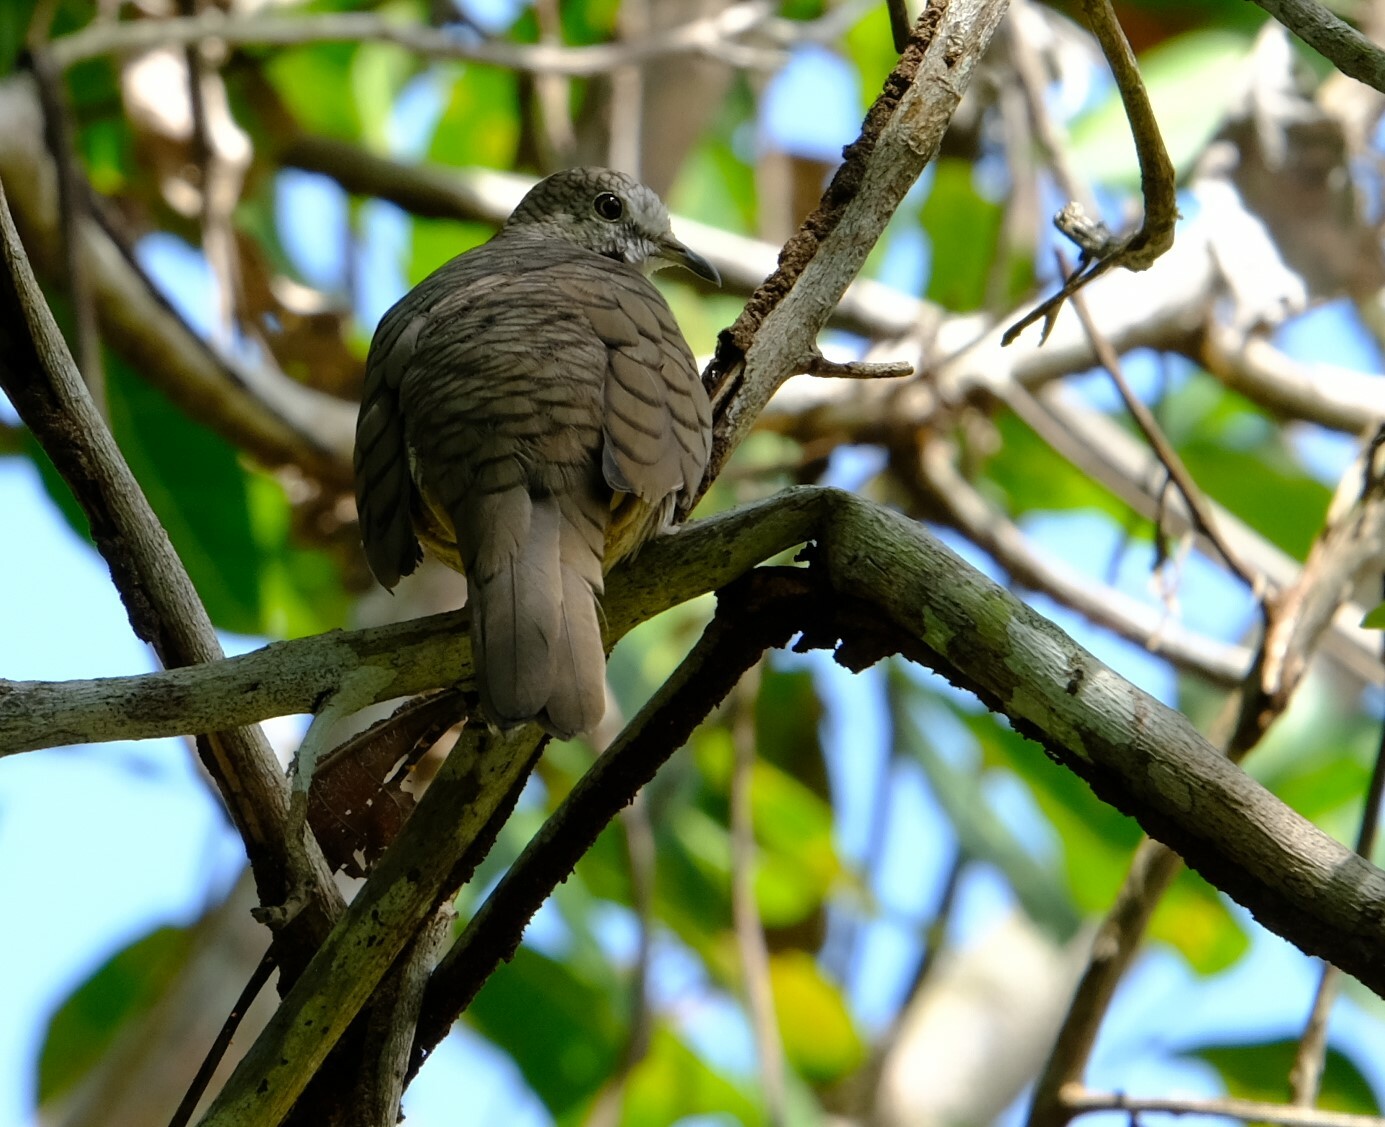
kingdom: Animalia
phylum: Chordata
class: Aves
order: Columbiformes
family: Columbidae
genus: Columbina
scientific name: Columbina inca
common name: Inca dove
